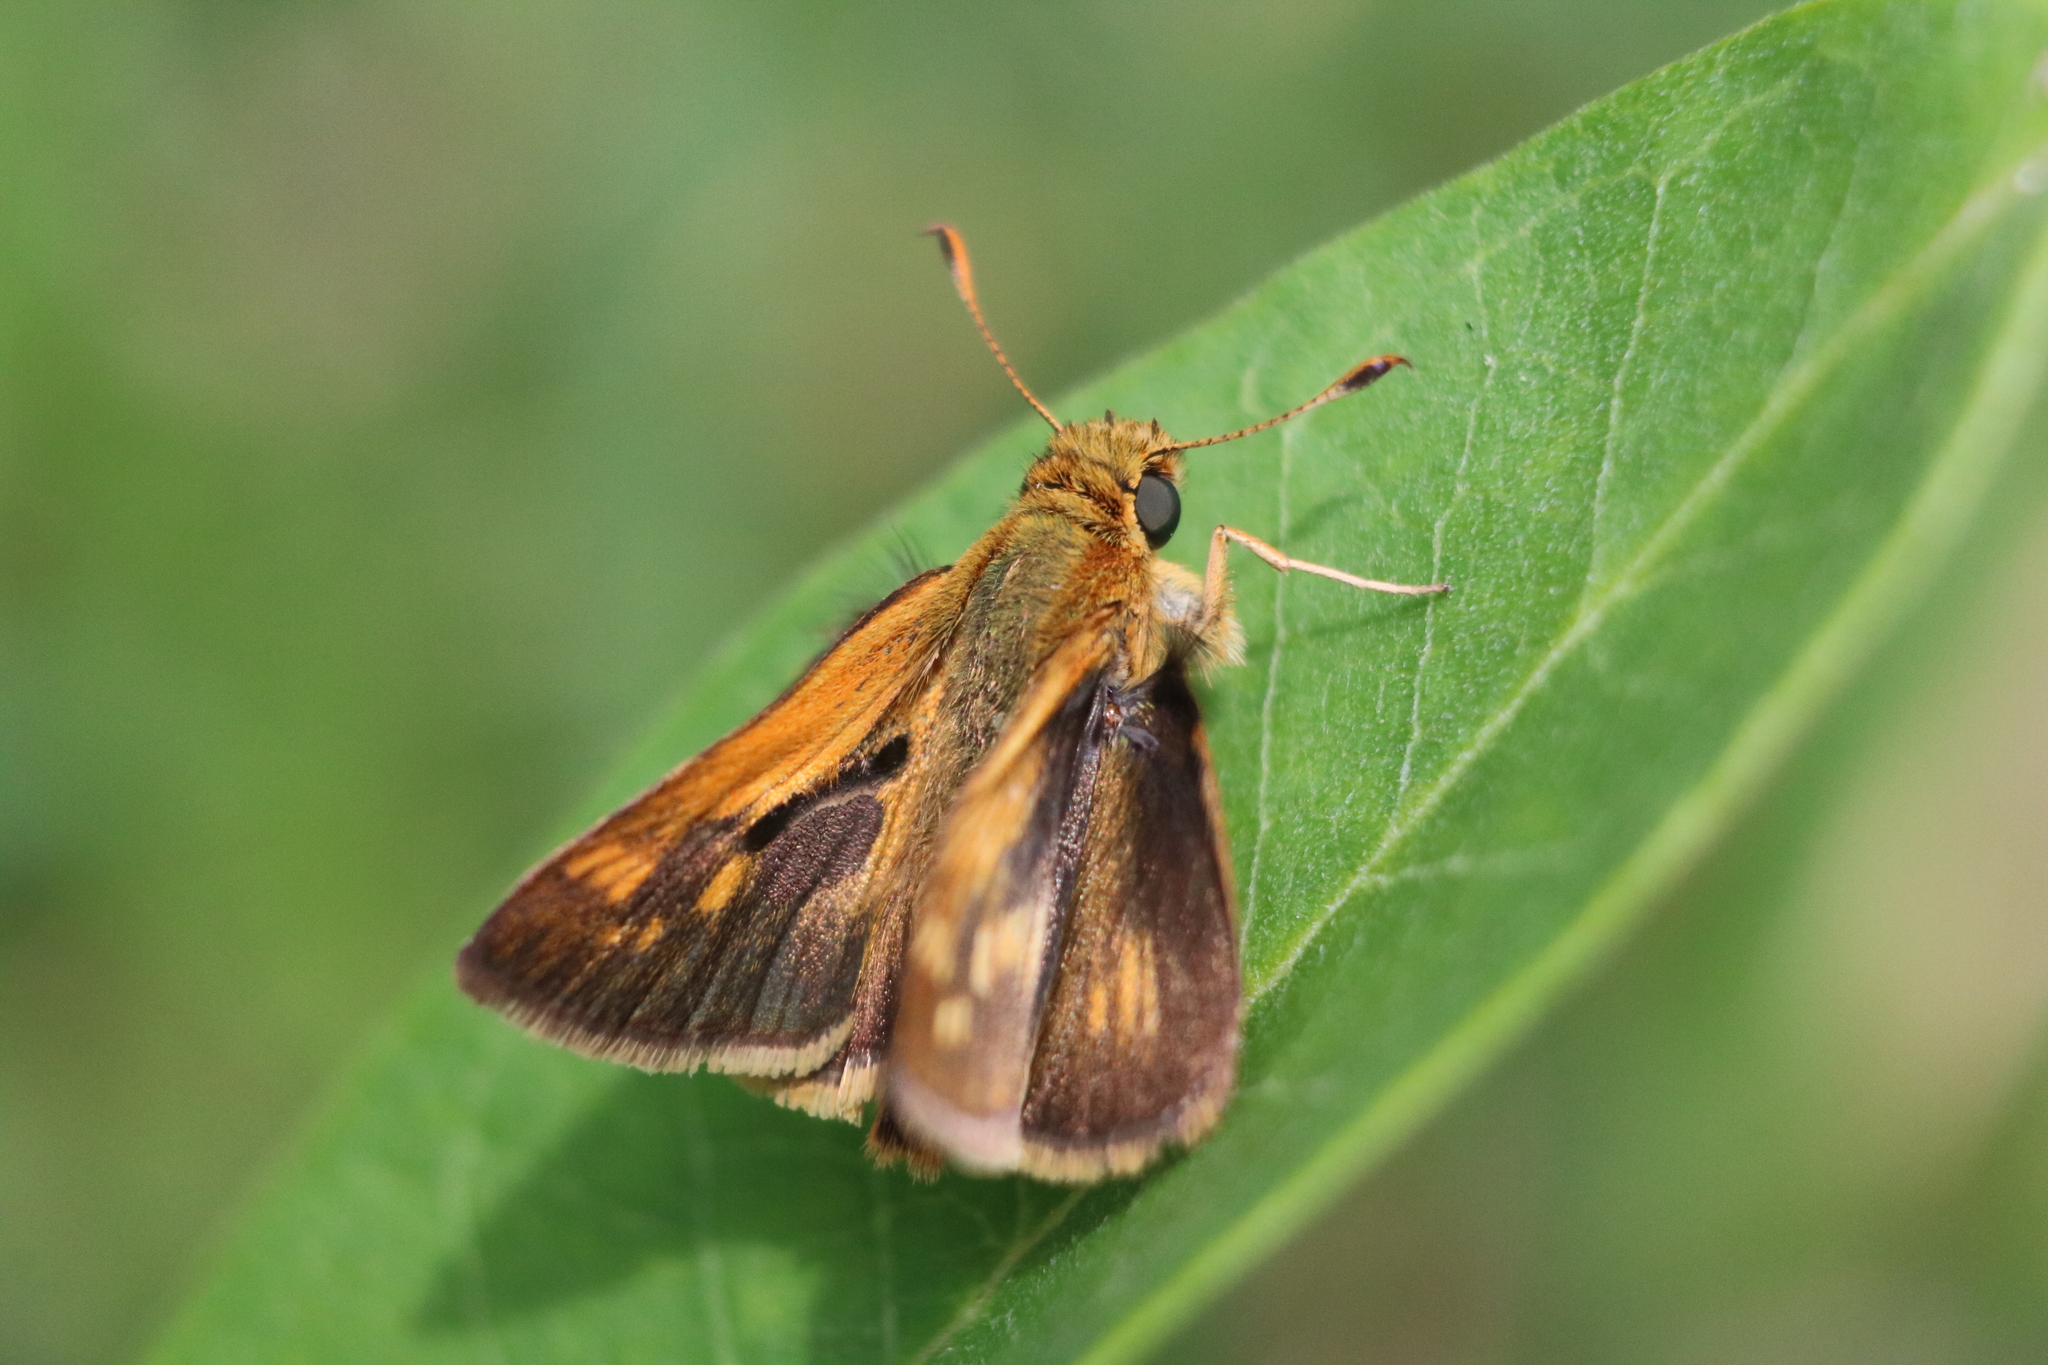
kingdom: Animalia
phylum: Arthropoda
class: Insecta
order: Lepidoptera
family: Hesperiidae
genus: Polites
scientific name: Polites coras
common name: Peck's skipper
